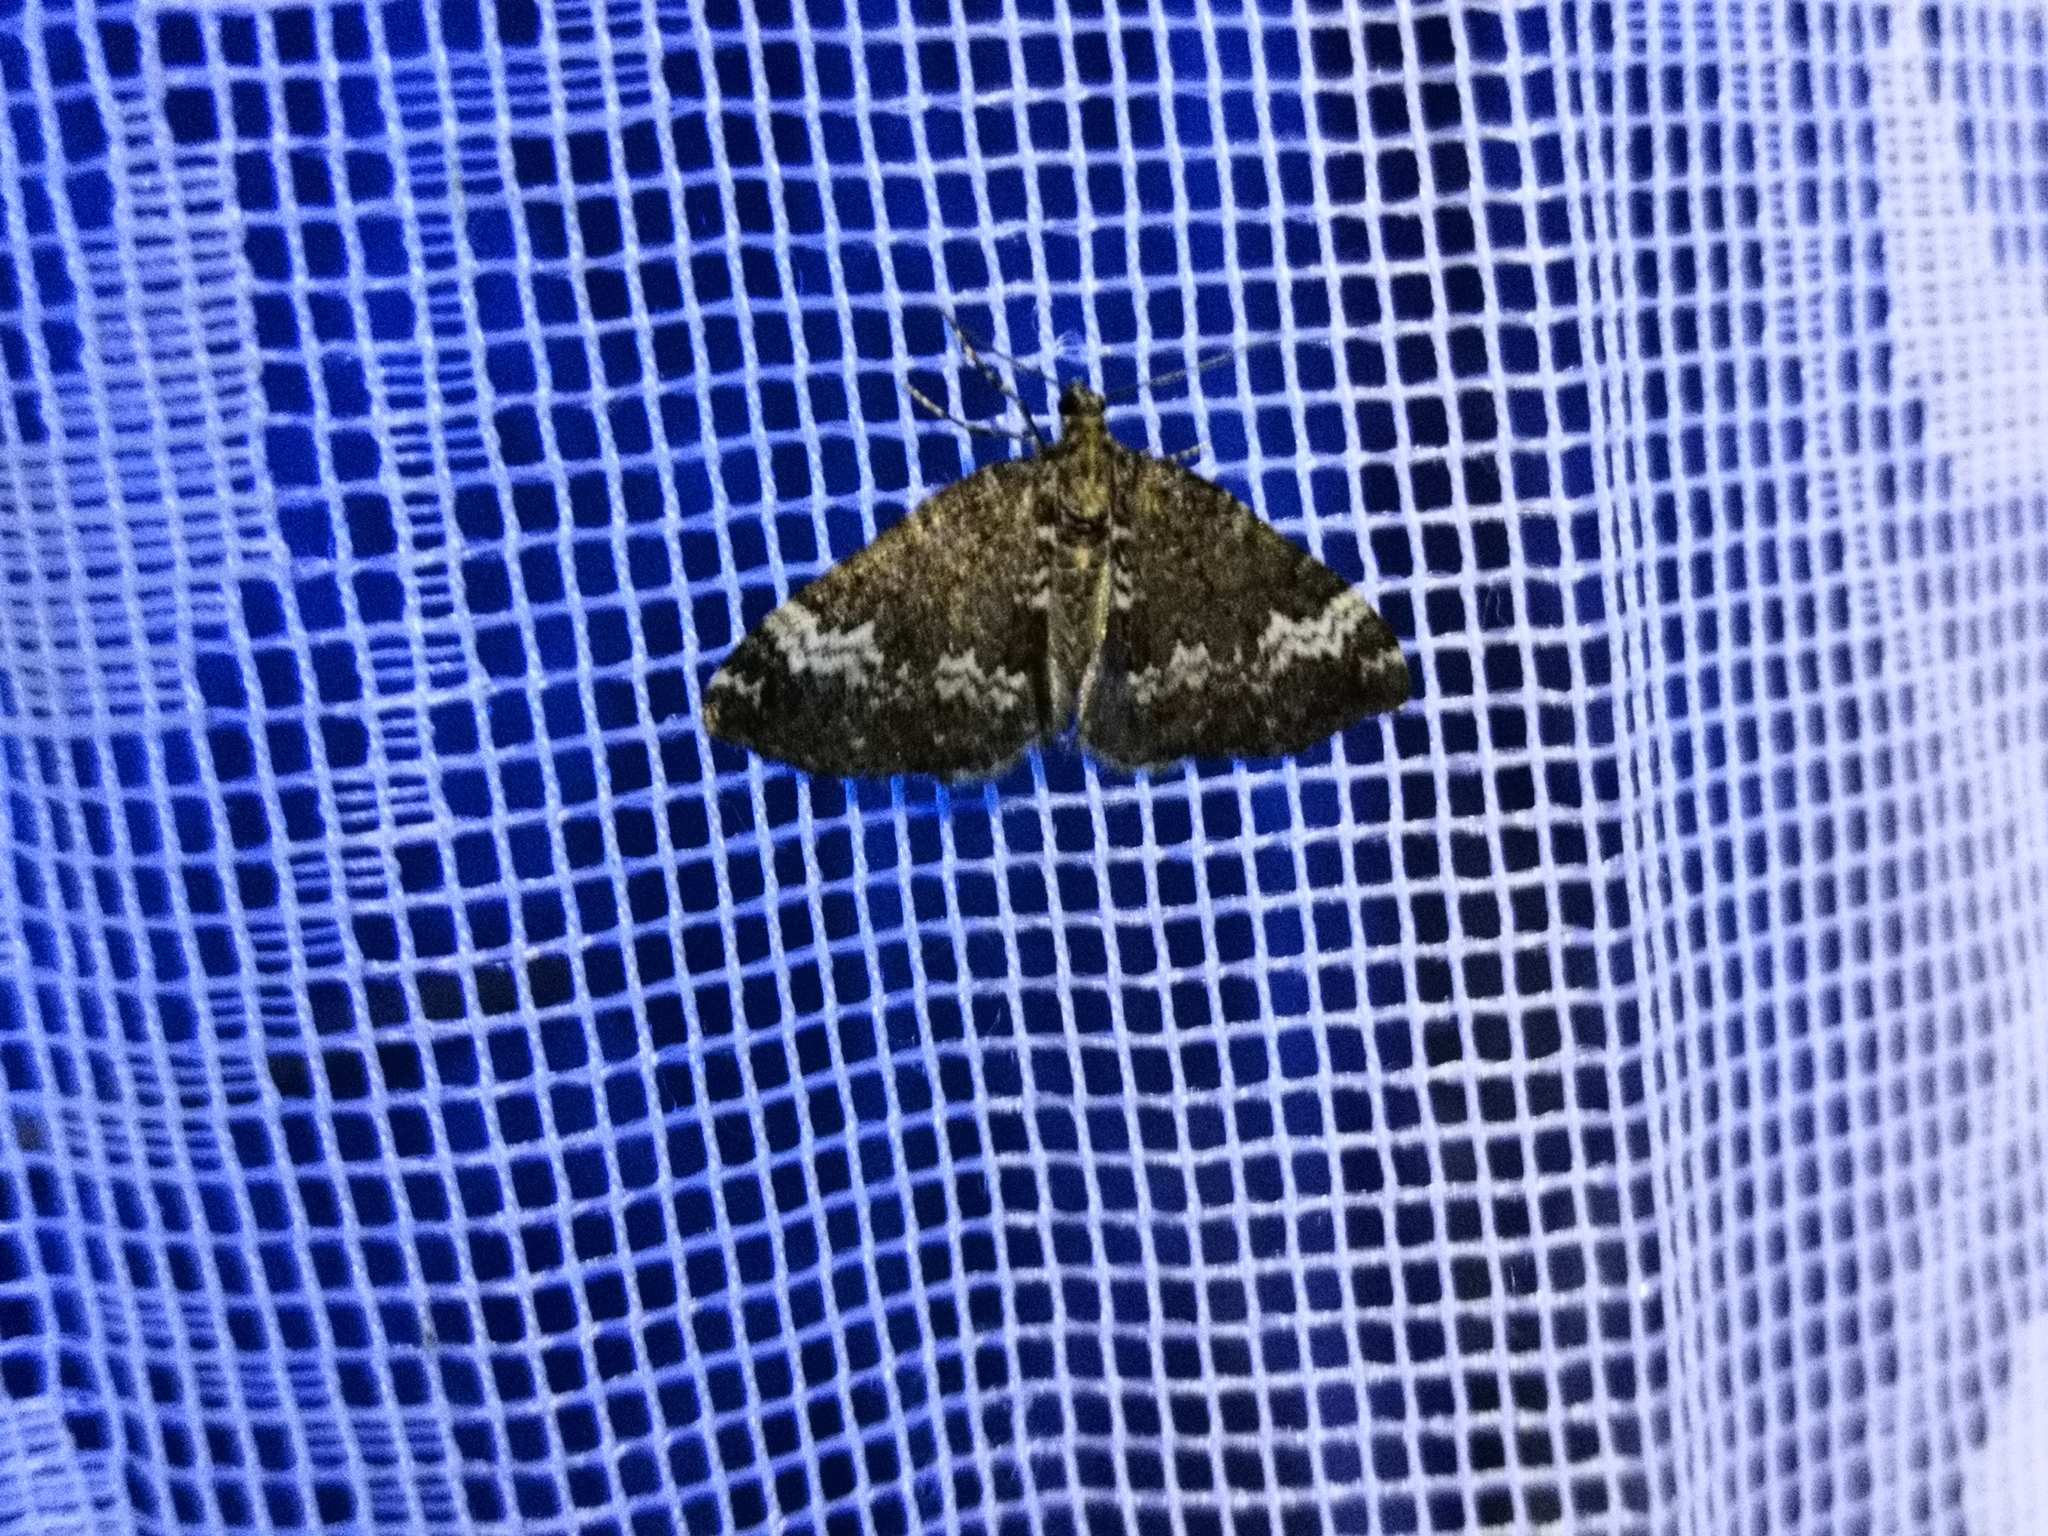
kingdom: Animalia
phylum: Arthropoda
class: Insecta
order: Lepidoptera
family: Geometridae
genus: Perizoma
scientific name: Perizoma alchemillata
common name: Small rivulet
